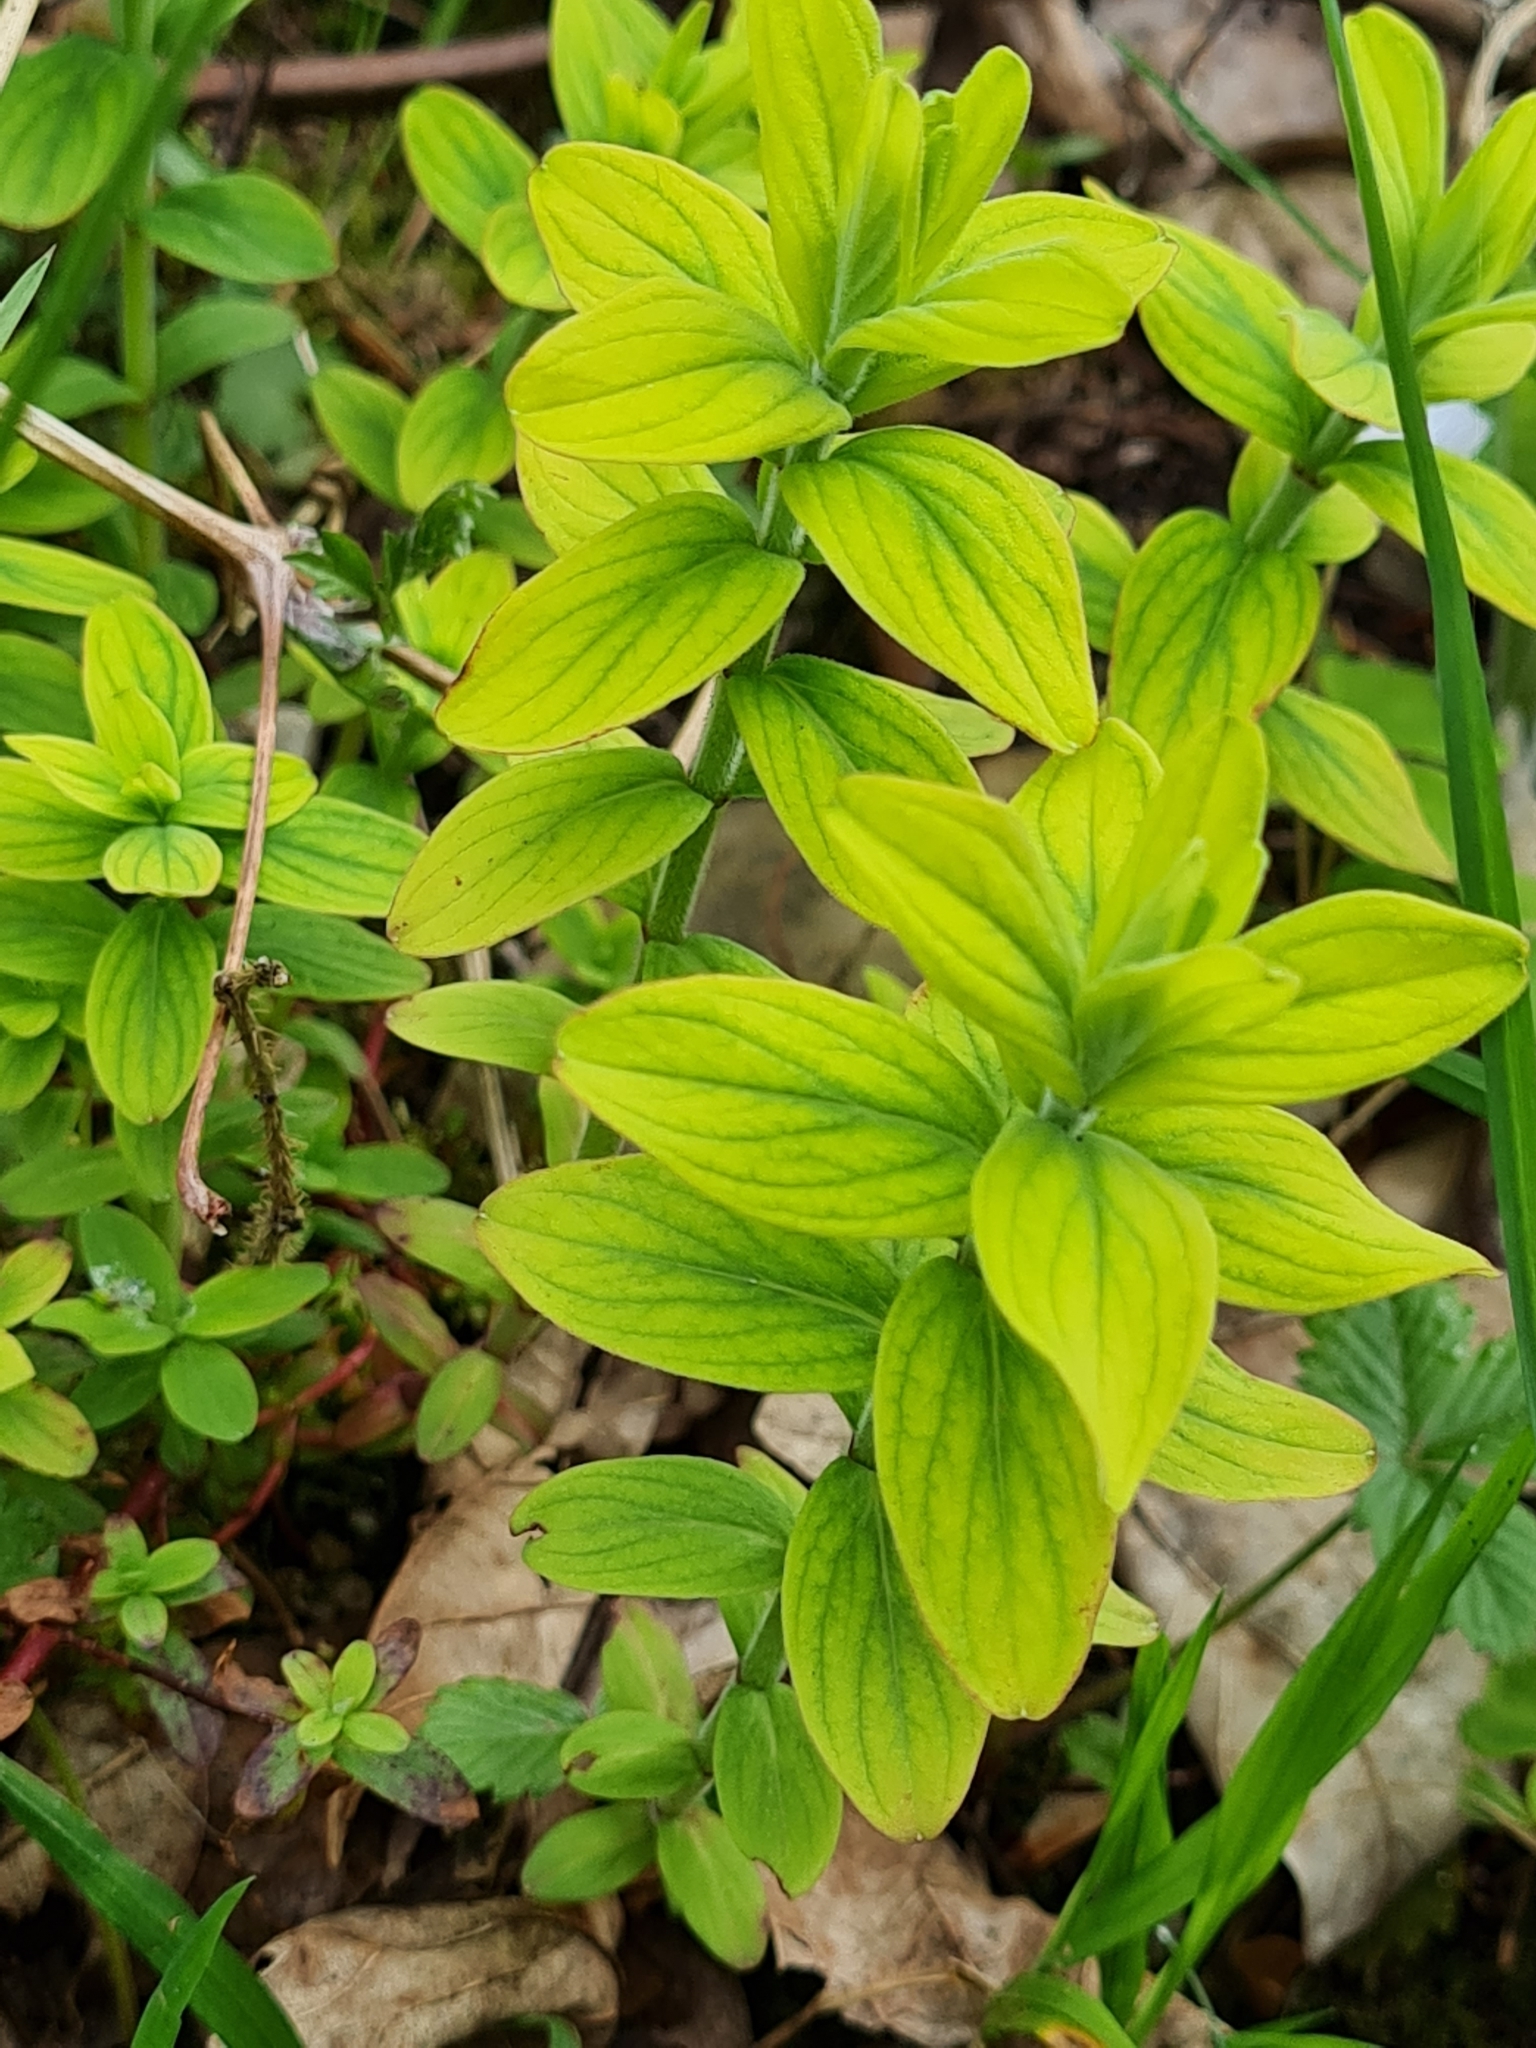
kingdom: Plantae
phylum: Tracheophyta
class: Magnoliopsida
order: Malpighiales
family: Hypericaceae
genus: Hypericum
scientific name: Hypericum hirsutum
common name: Hairy st. john's-wort
